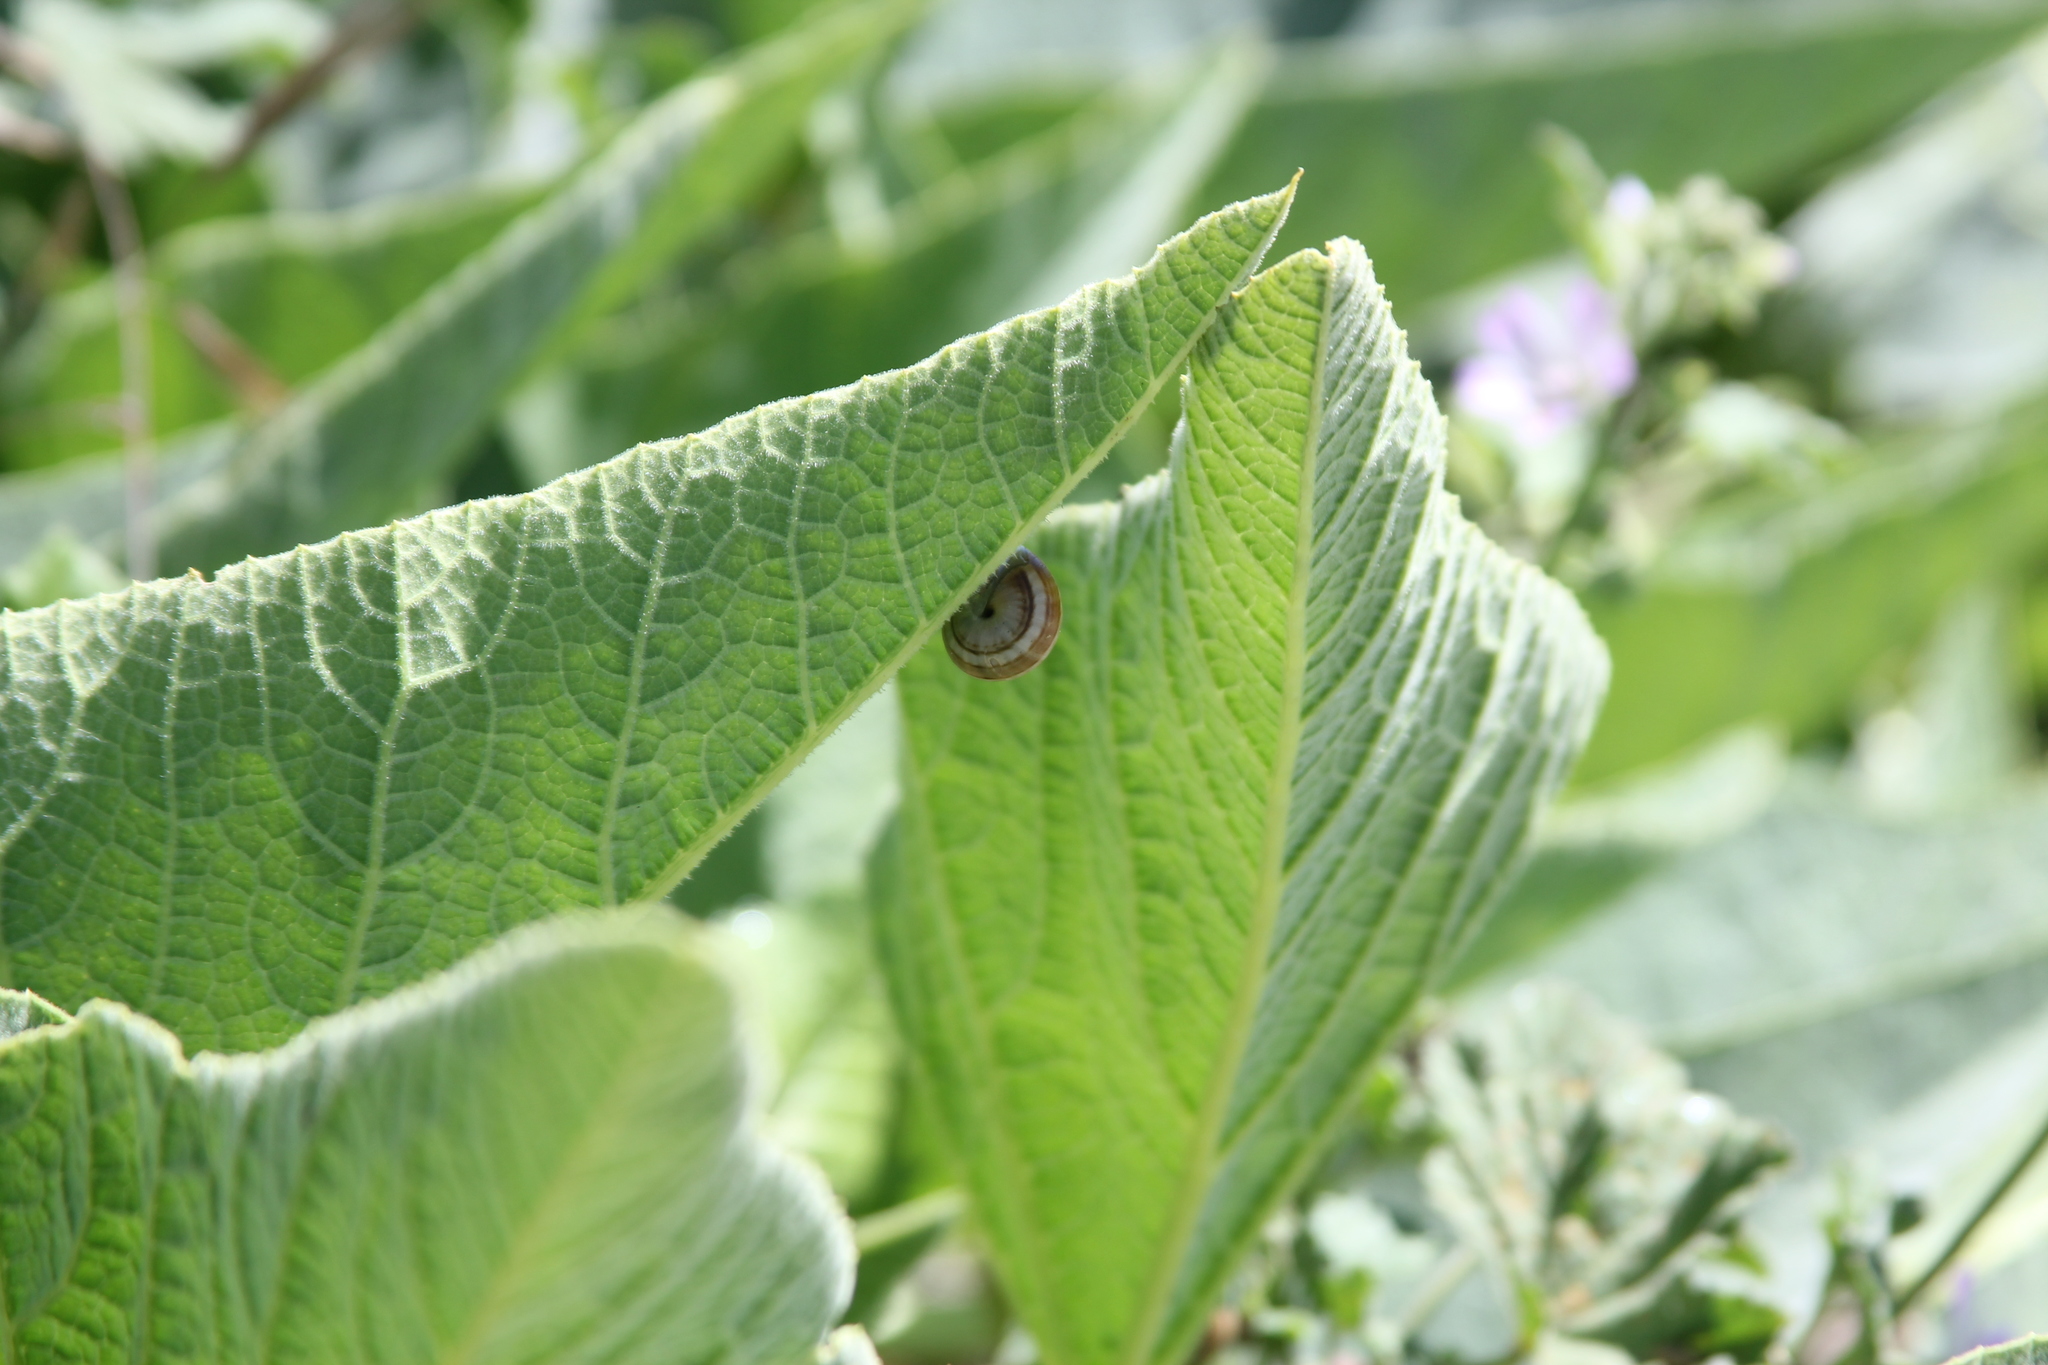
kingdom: Animalia
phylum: Mollusca
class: Gastropoda
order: Stylommatophora
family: Helicidae
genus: Theba
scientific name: Theba pisana
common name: White snail
